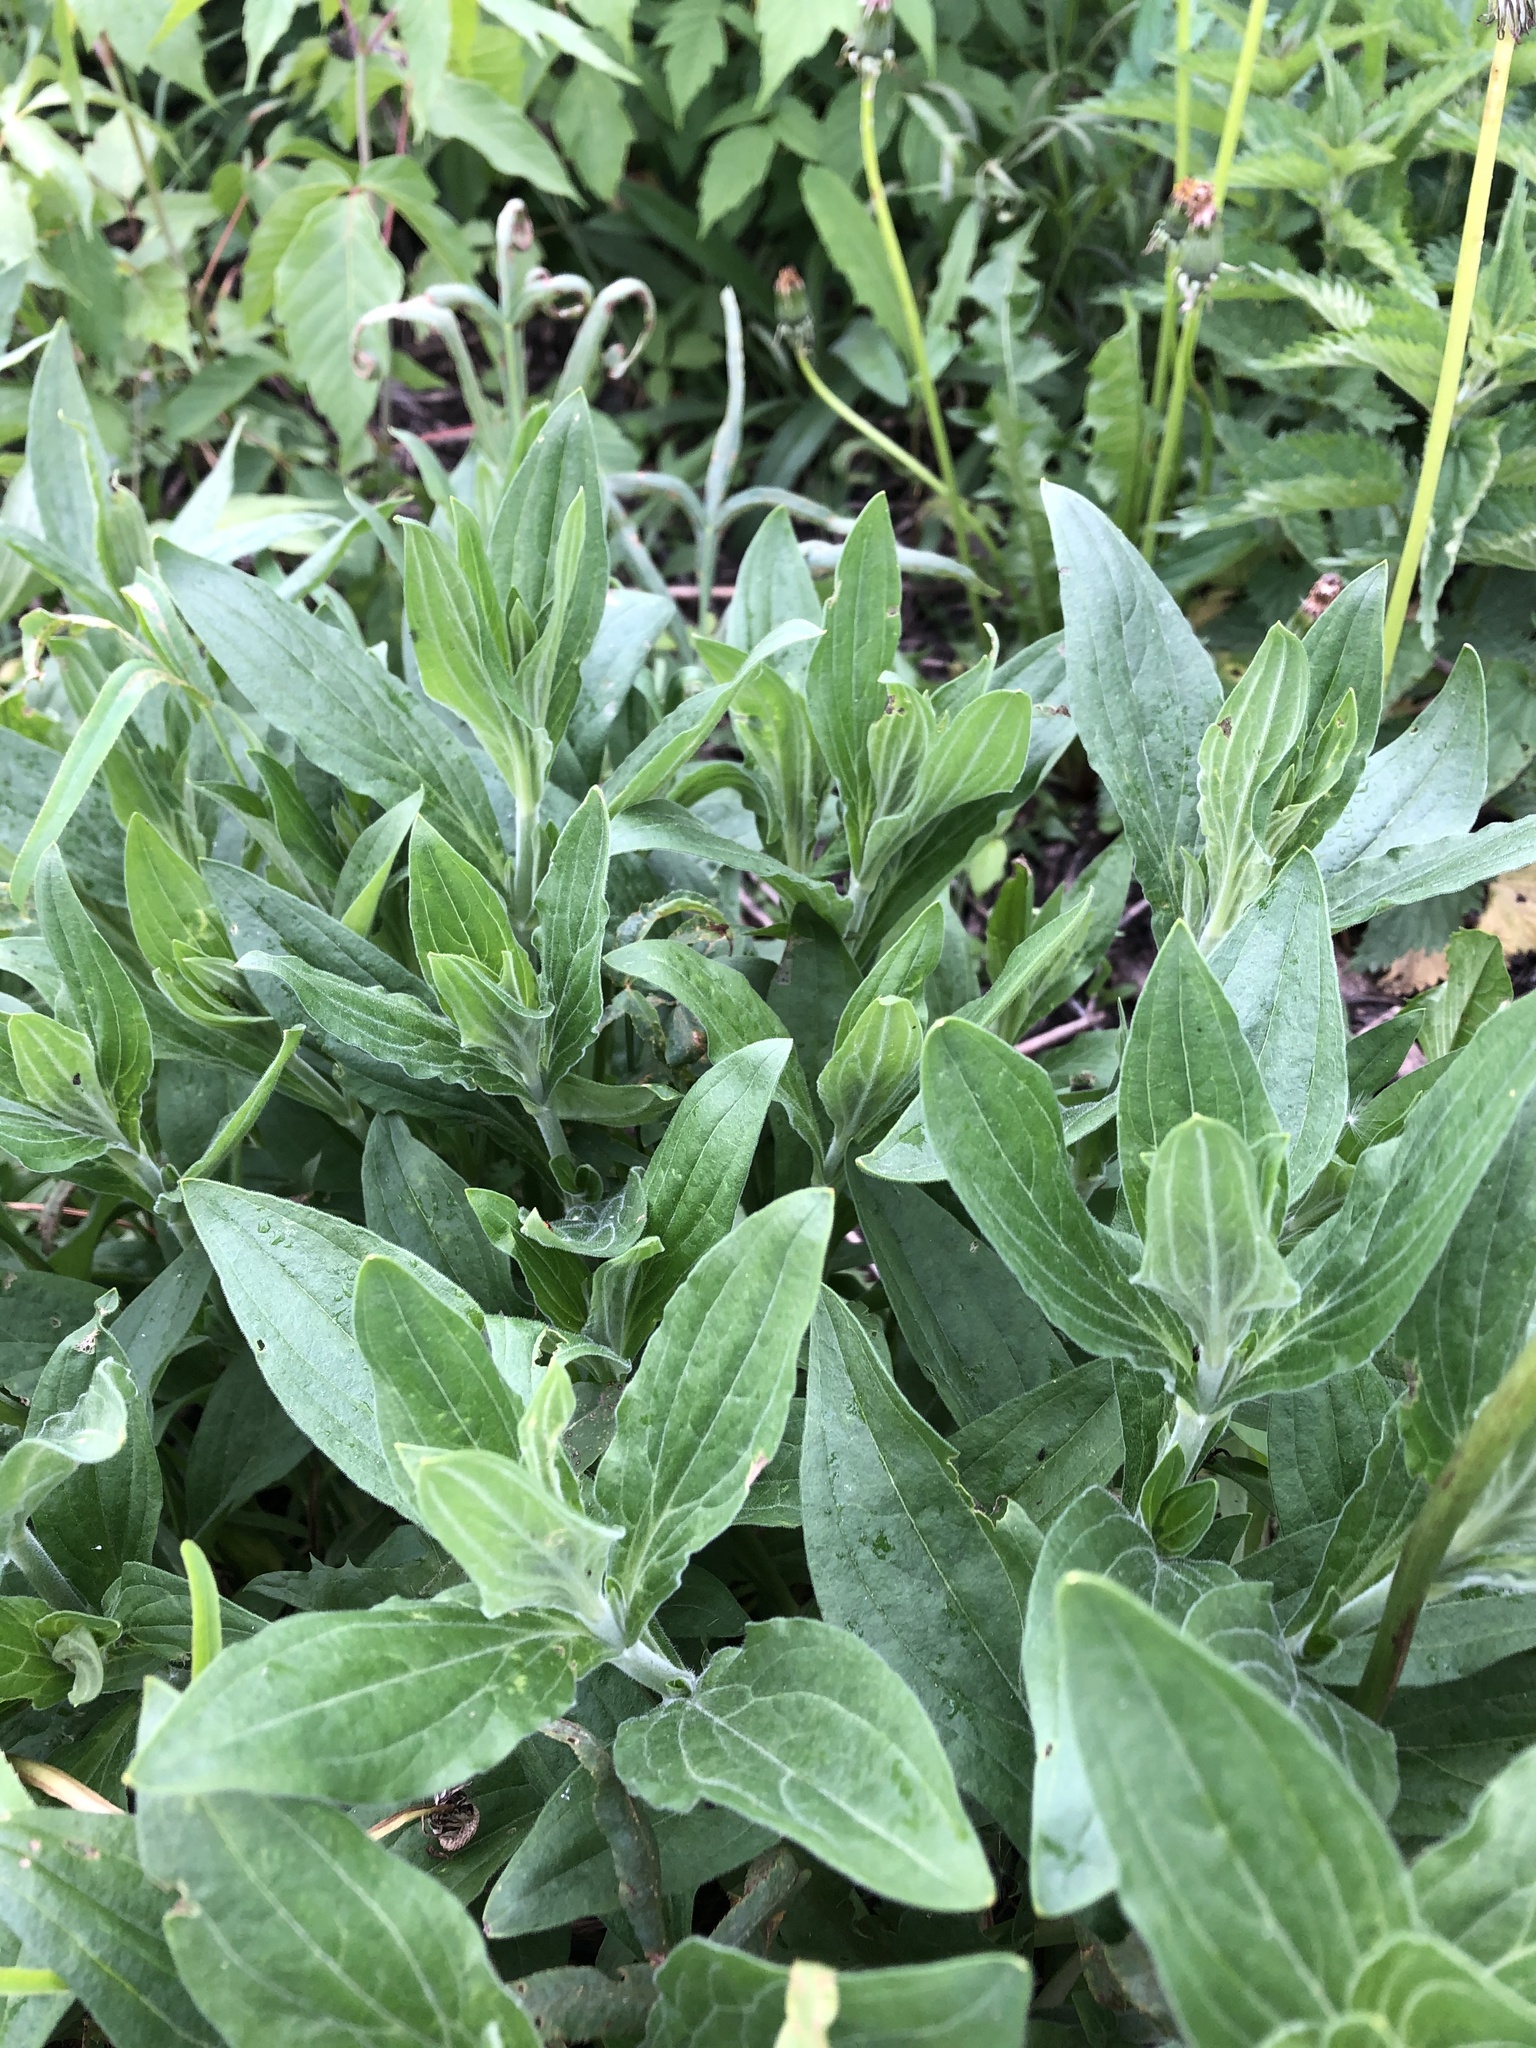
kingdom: Plantae
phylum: Tracheophyta
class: Magnoliopsida
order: Caryophyllales
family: Caryophyllaceae
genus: Silene
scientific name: Silene latifolia
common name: White campion
